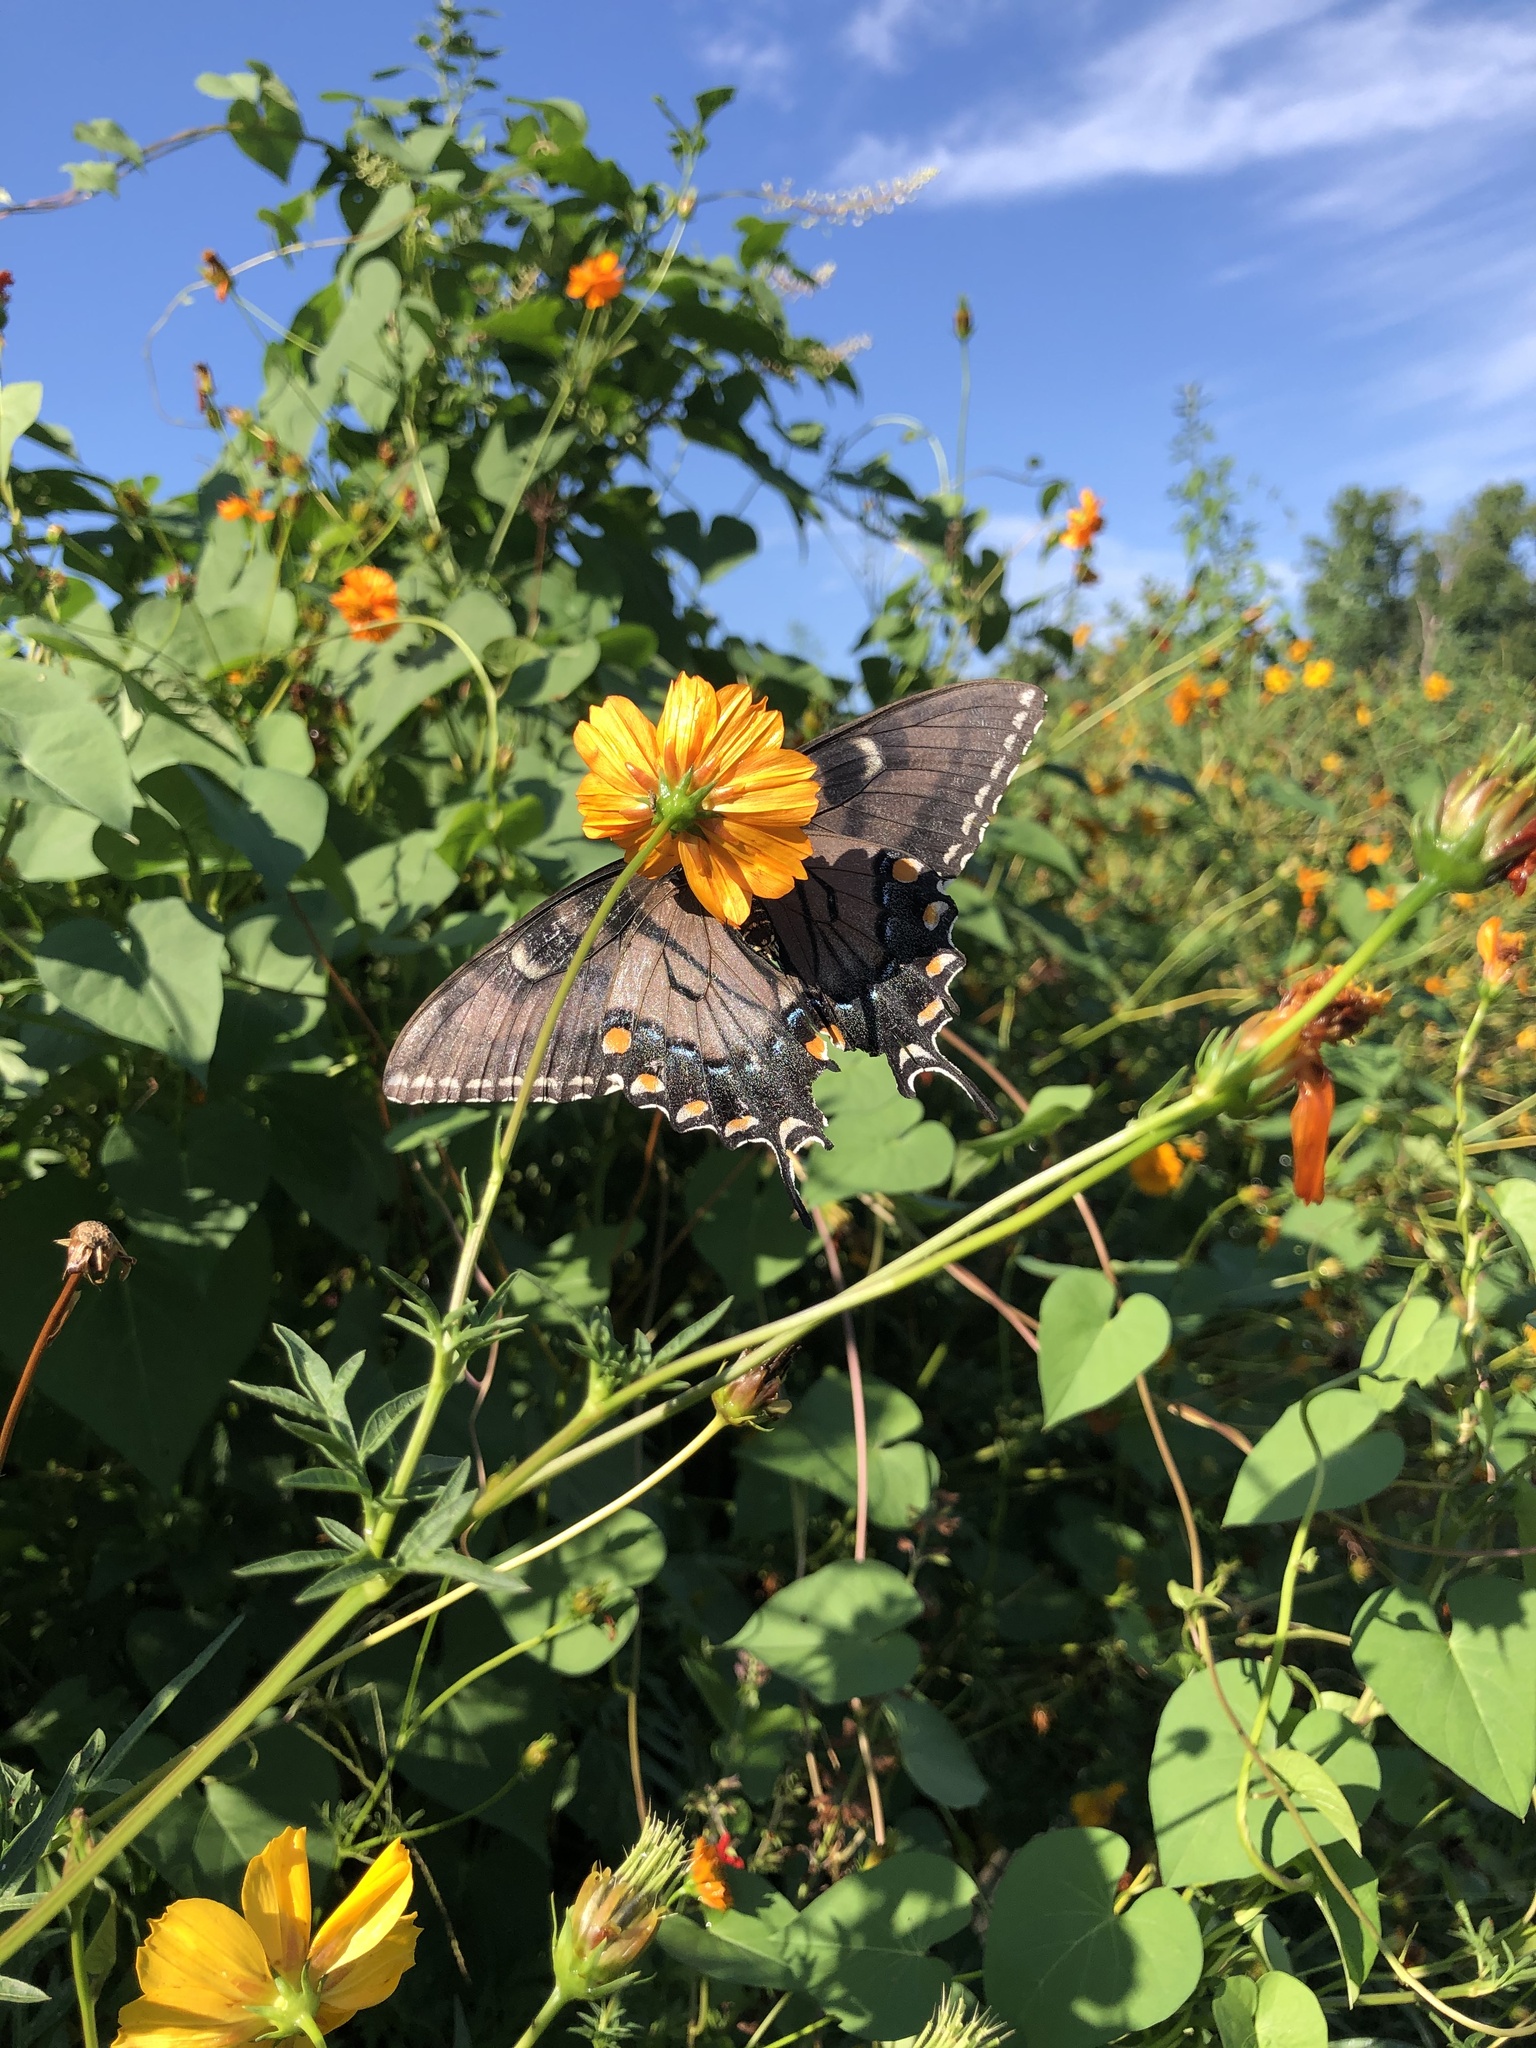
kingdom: Animalia
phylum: Arthropoda
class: Insecta
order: Lepidoptera
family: Papilionidae
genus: Papilio
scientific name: Papilio glaucus
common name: Tiger swallowtail
